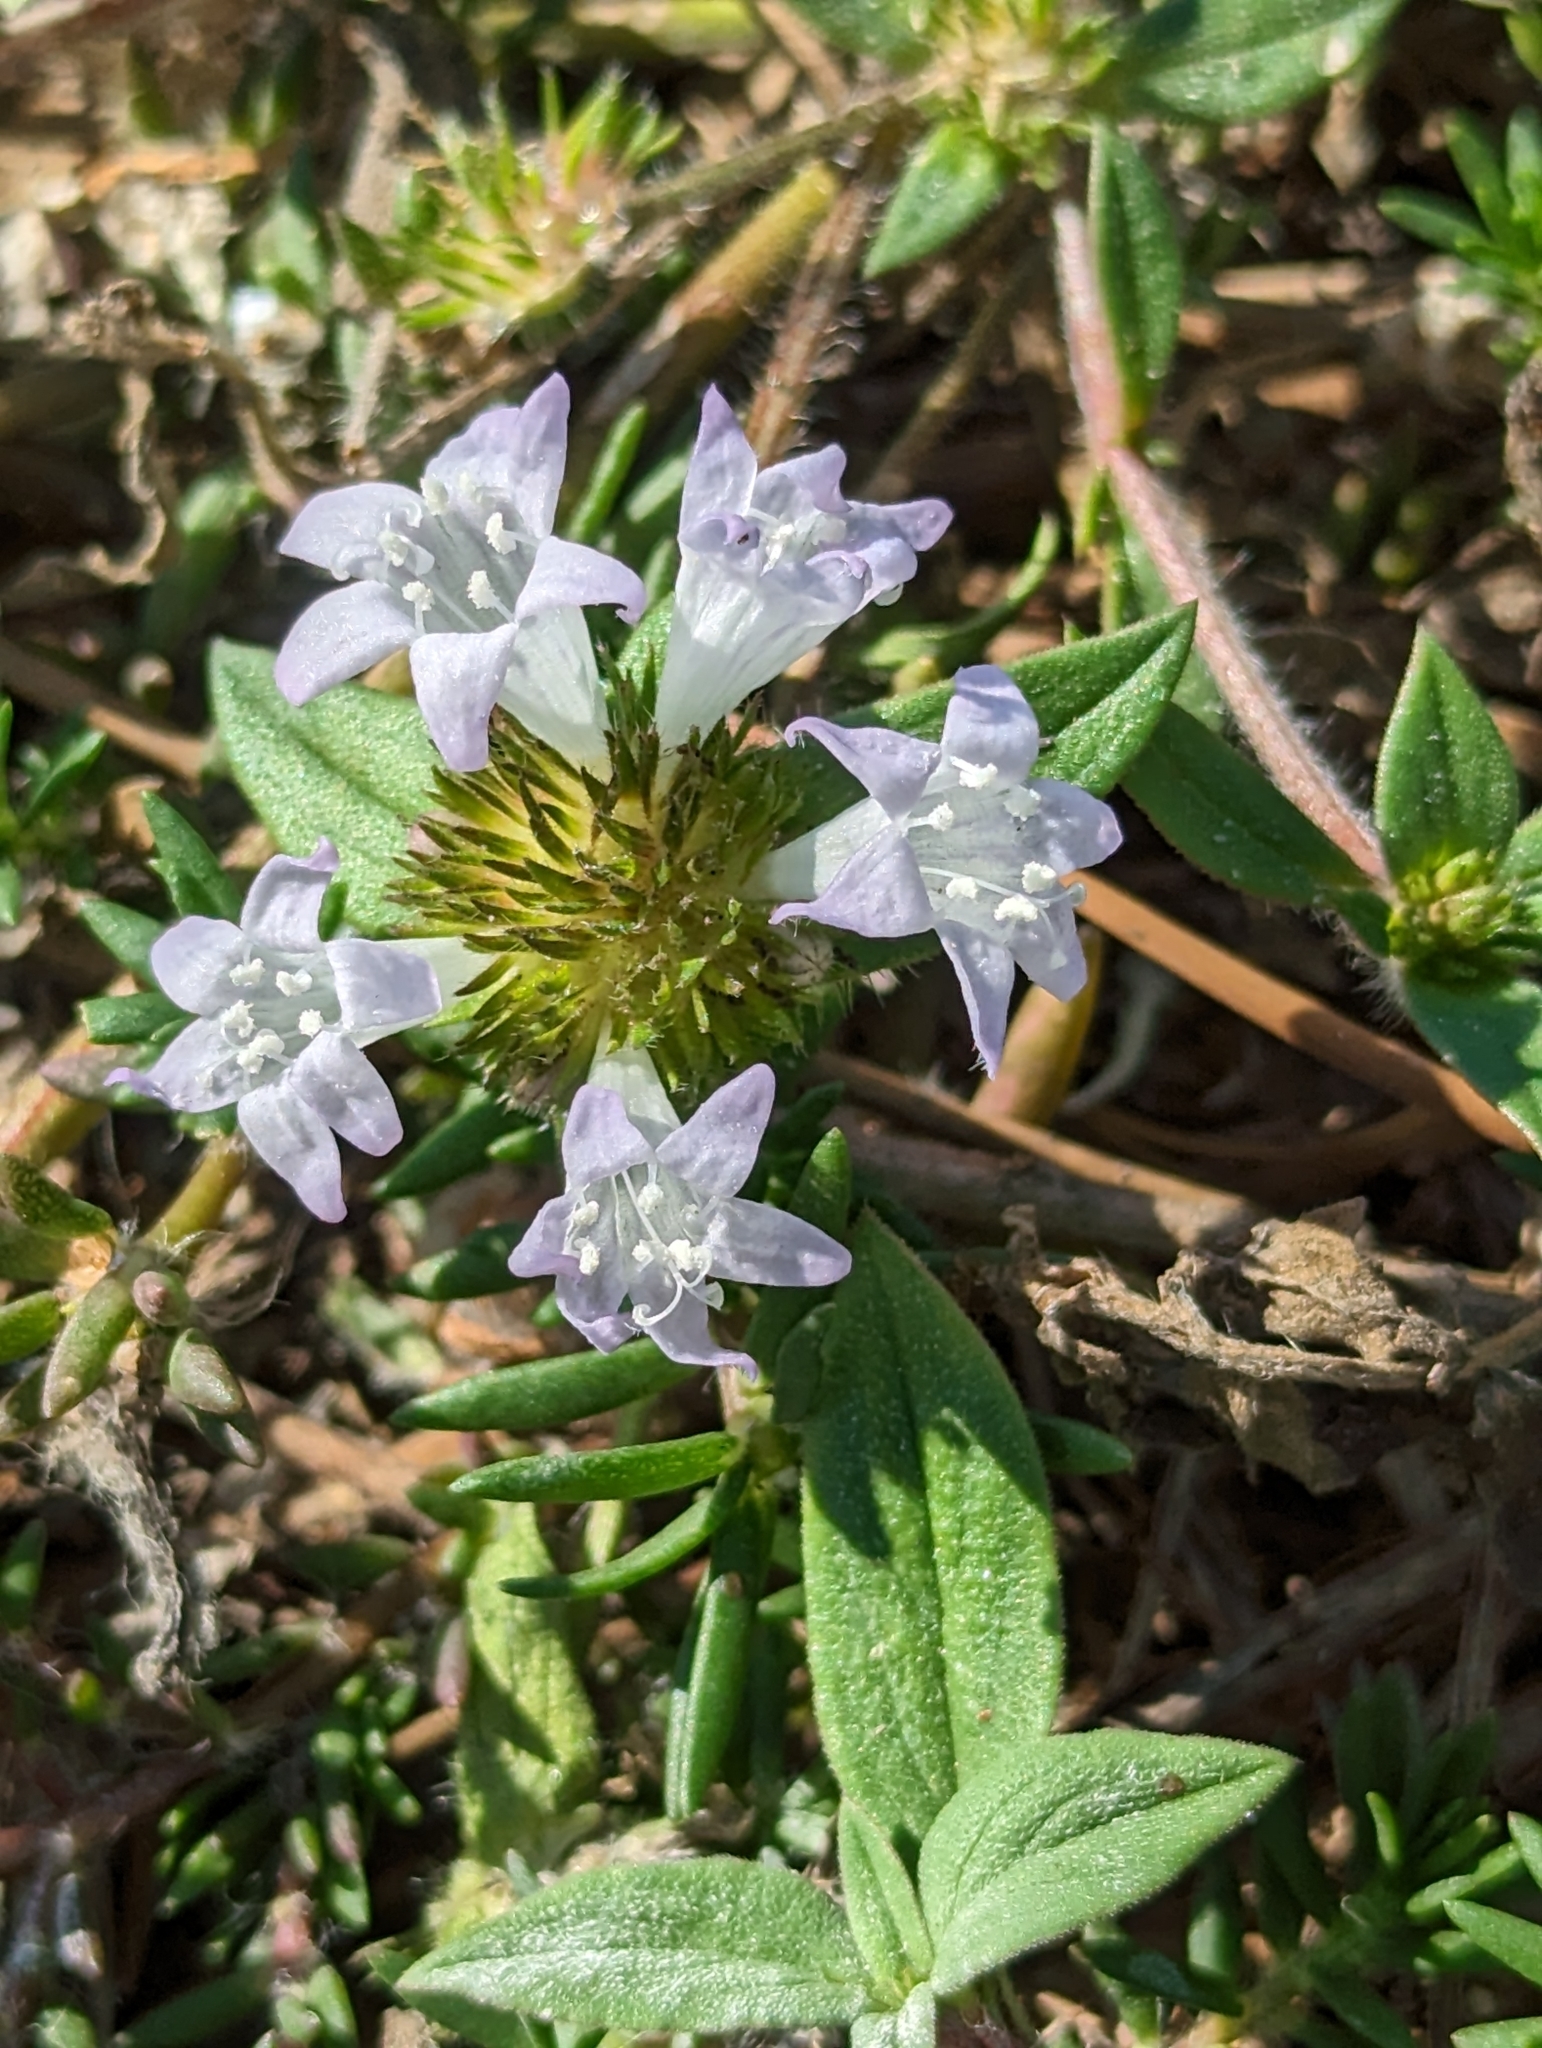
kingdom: Plantae
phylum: Tracheophyta
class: Magnoliopsida
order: Gentianales
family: Rubiaceae
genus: Richardia
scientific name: Richardia grandiflora
